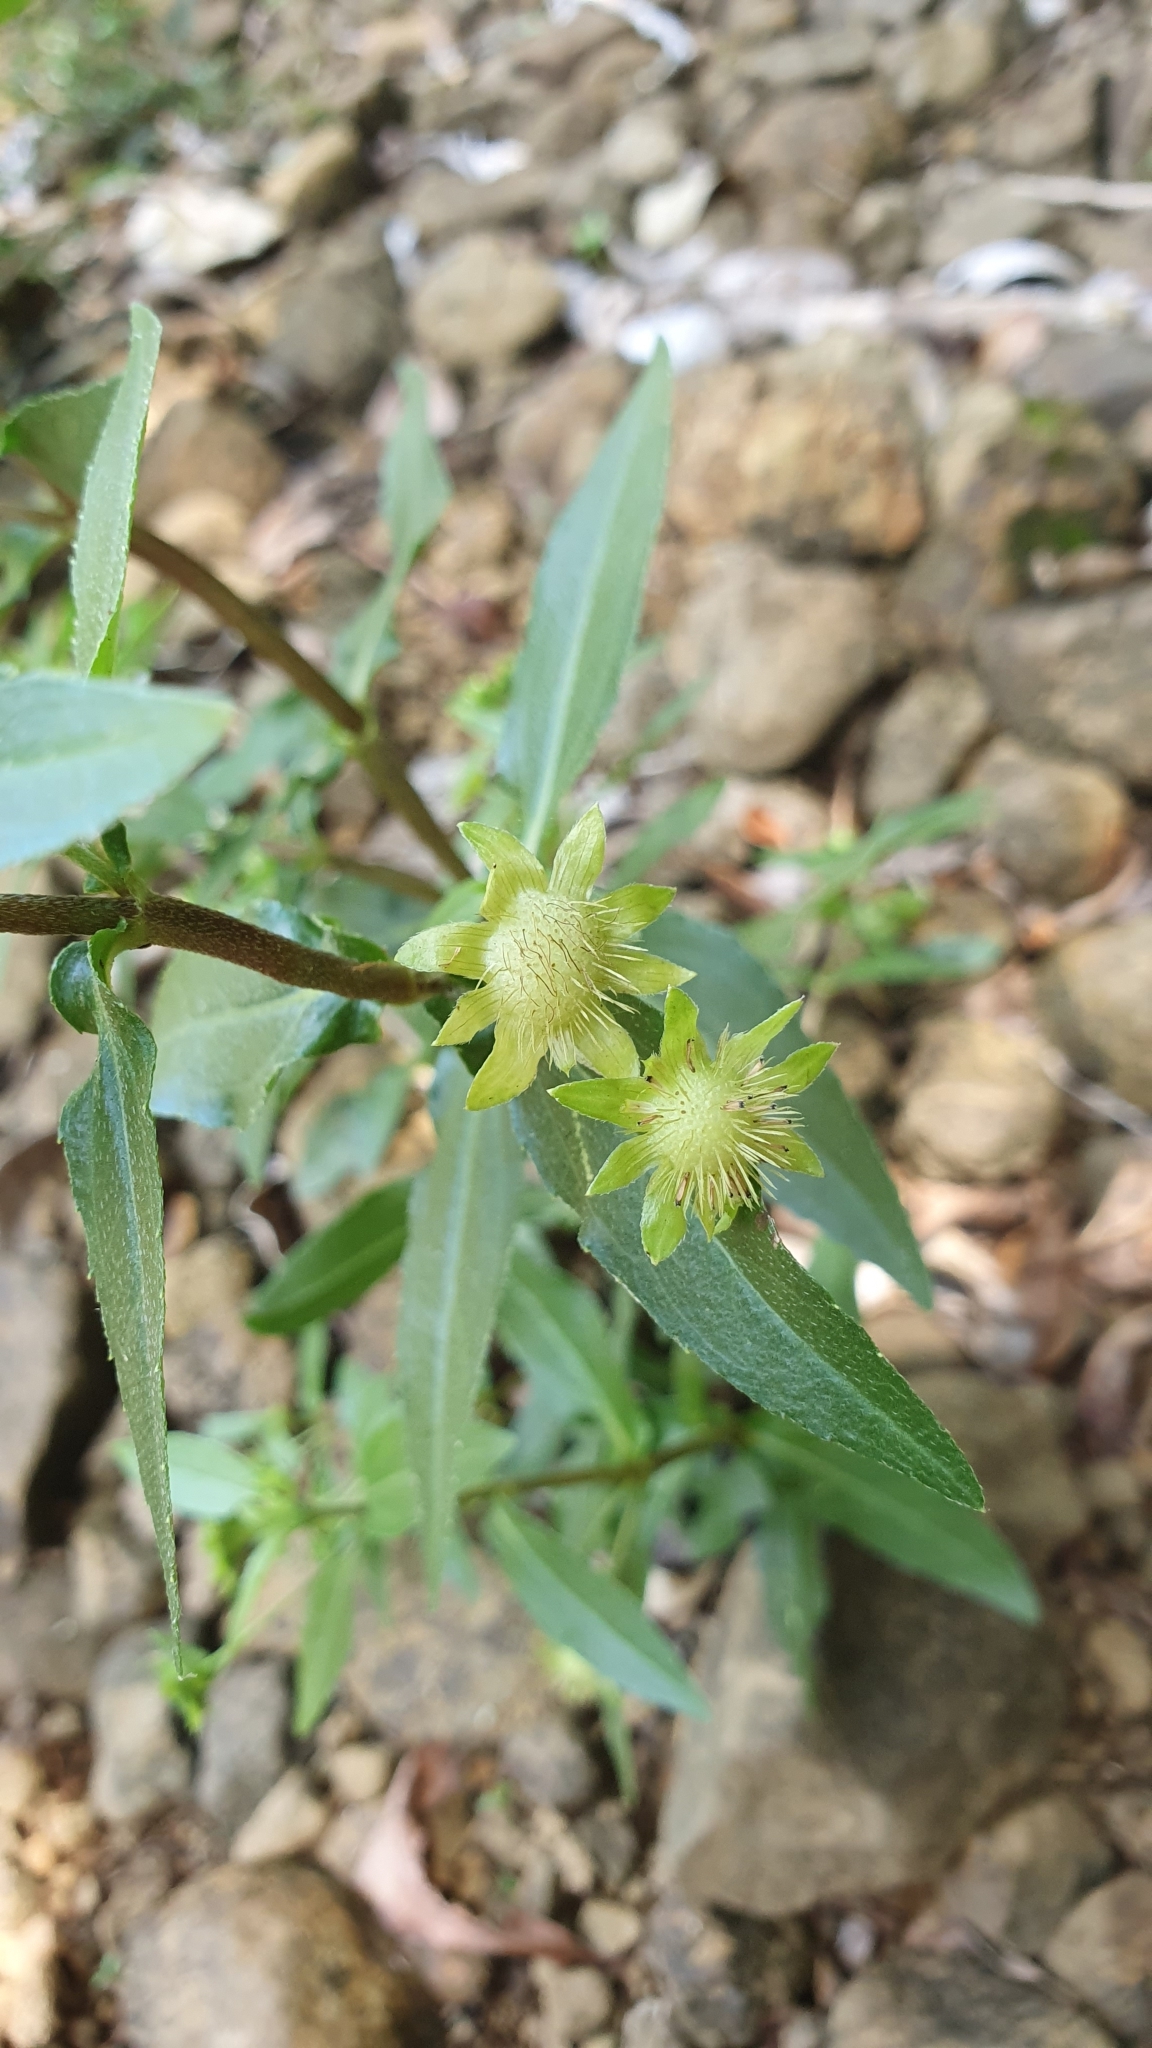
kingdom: Plantae
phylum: Tracheophyta
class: Magnoliopsida
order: Asterales
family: Asteraceae
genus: Eclipta
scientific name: Eclipta prostrata
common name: False daisy
